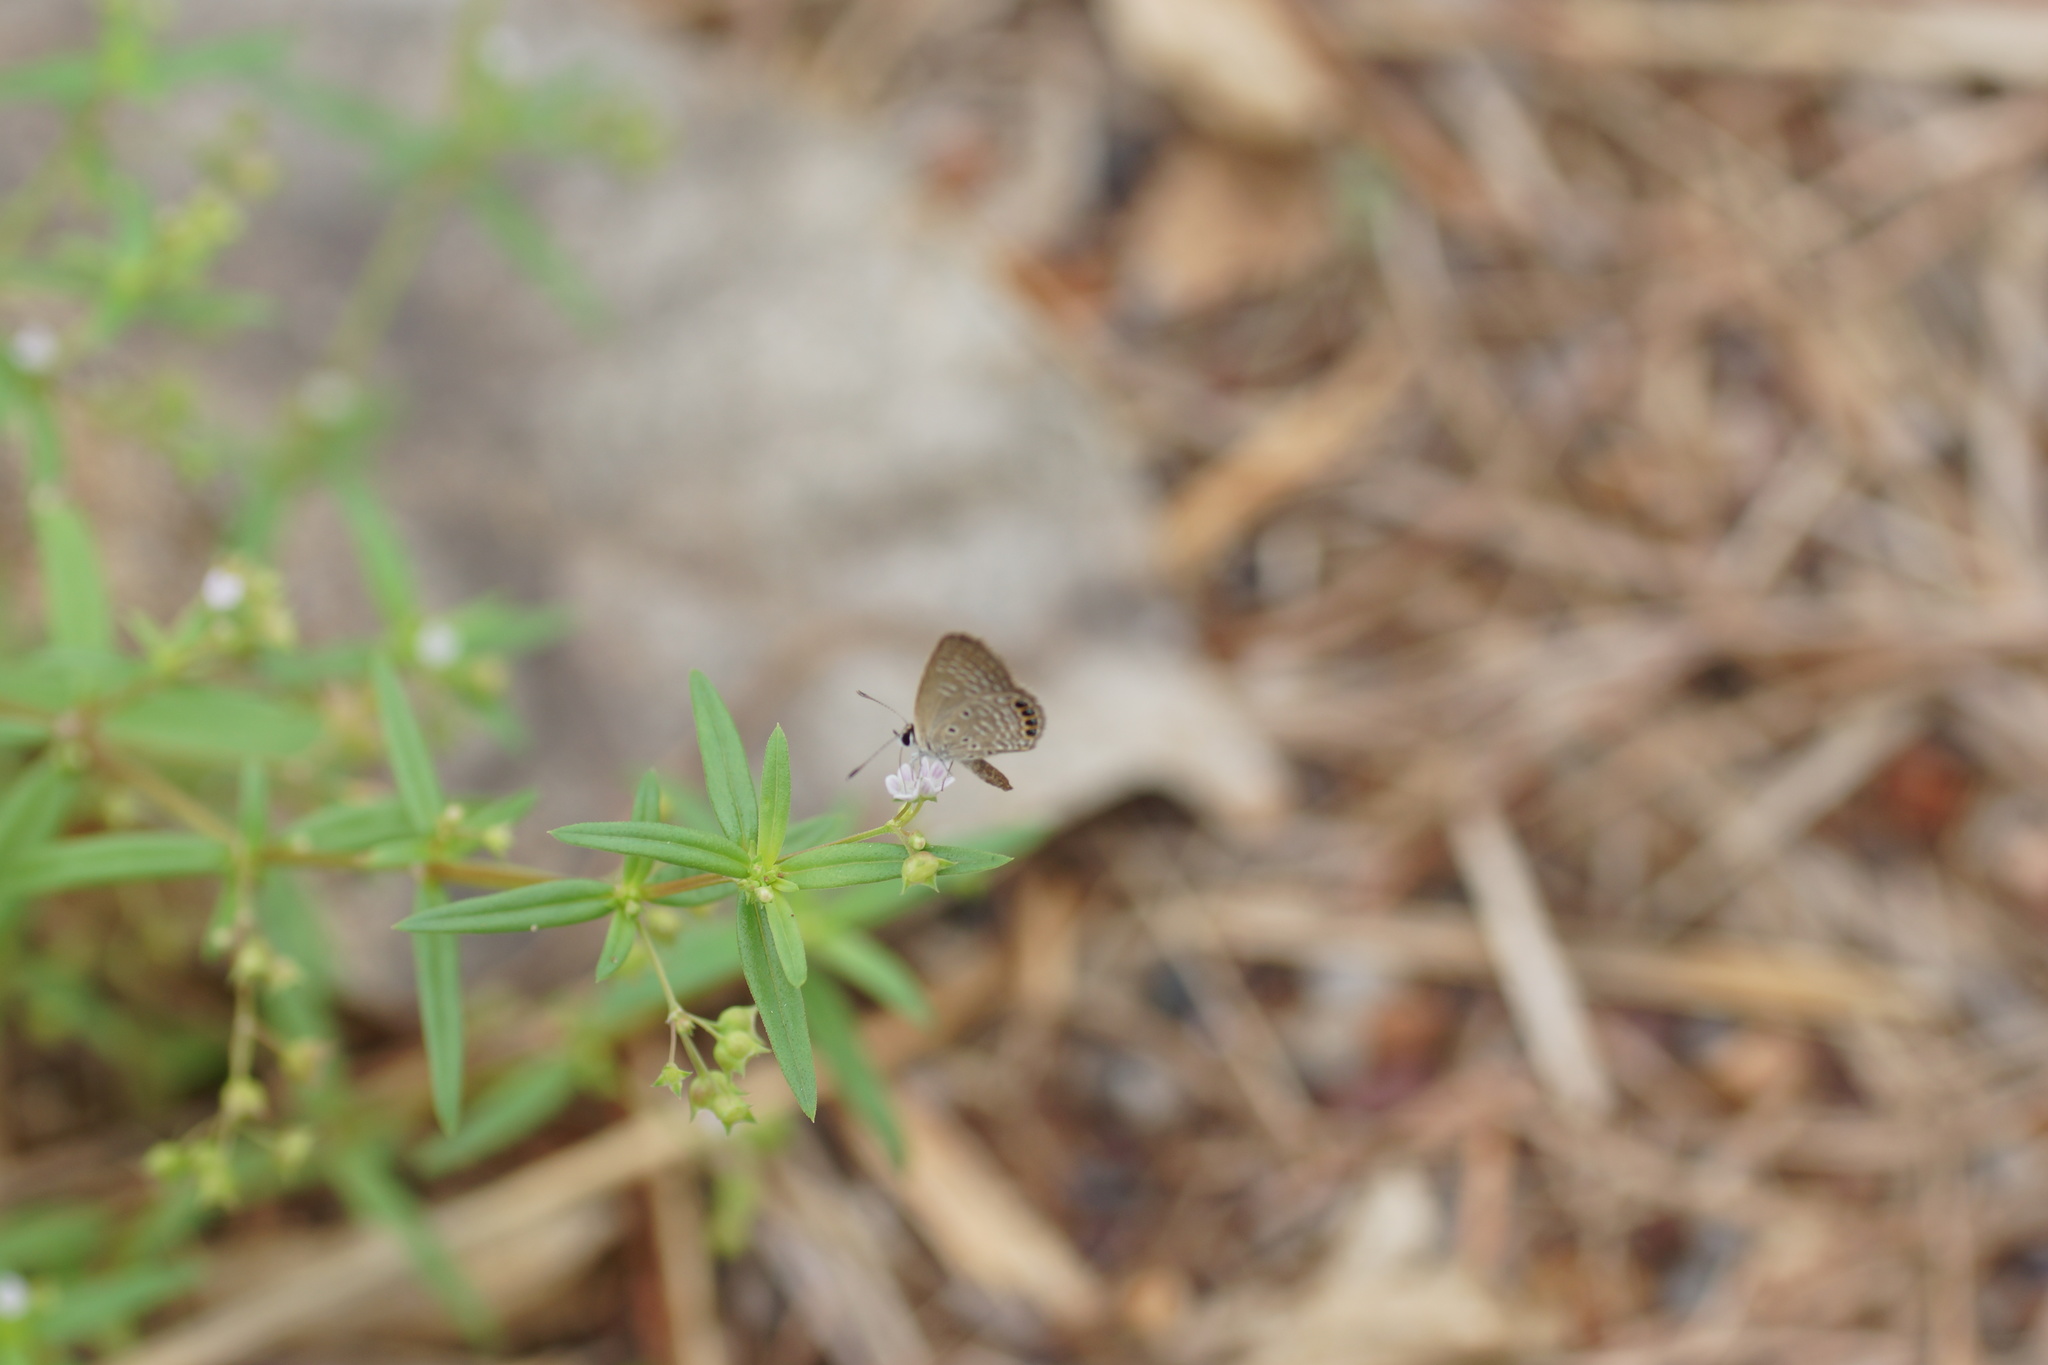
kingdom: Animalia
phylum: Arthropoda
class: Insecta
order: Lepidoptera
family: Lycaenidae
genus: Freyeria
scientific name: Freyeria putli
